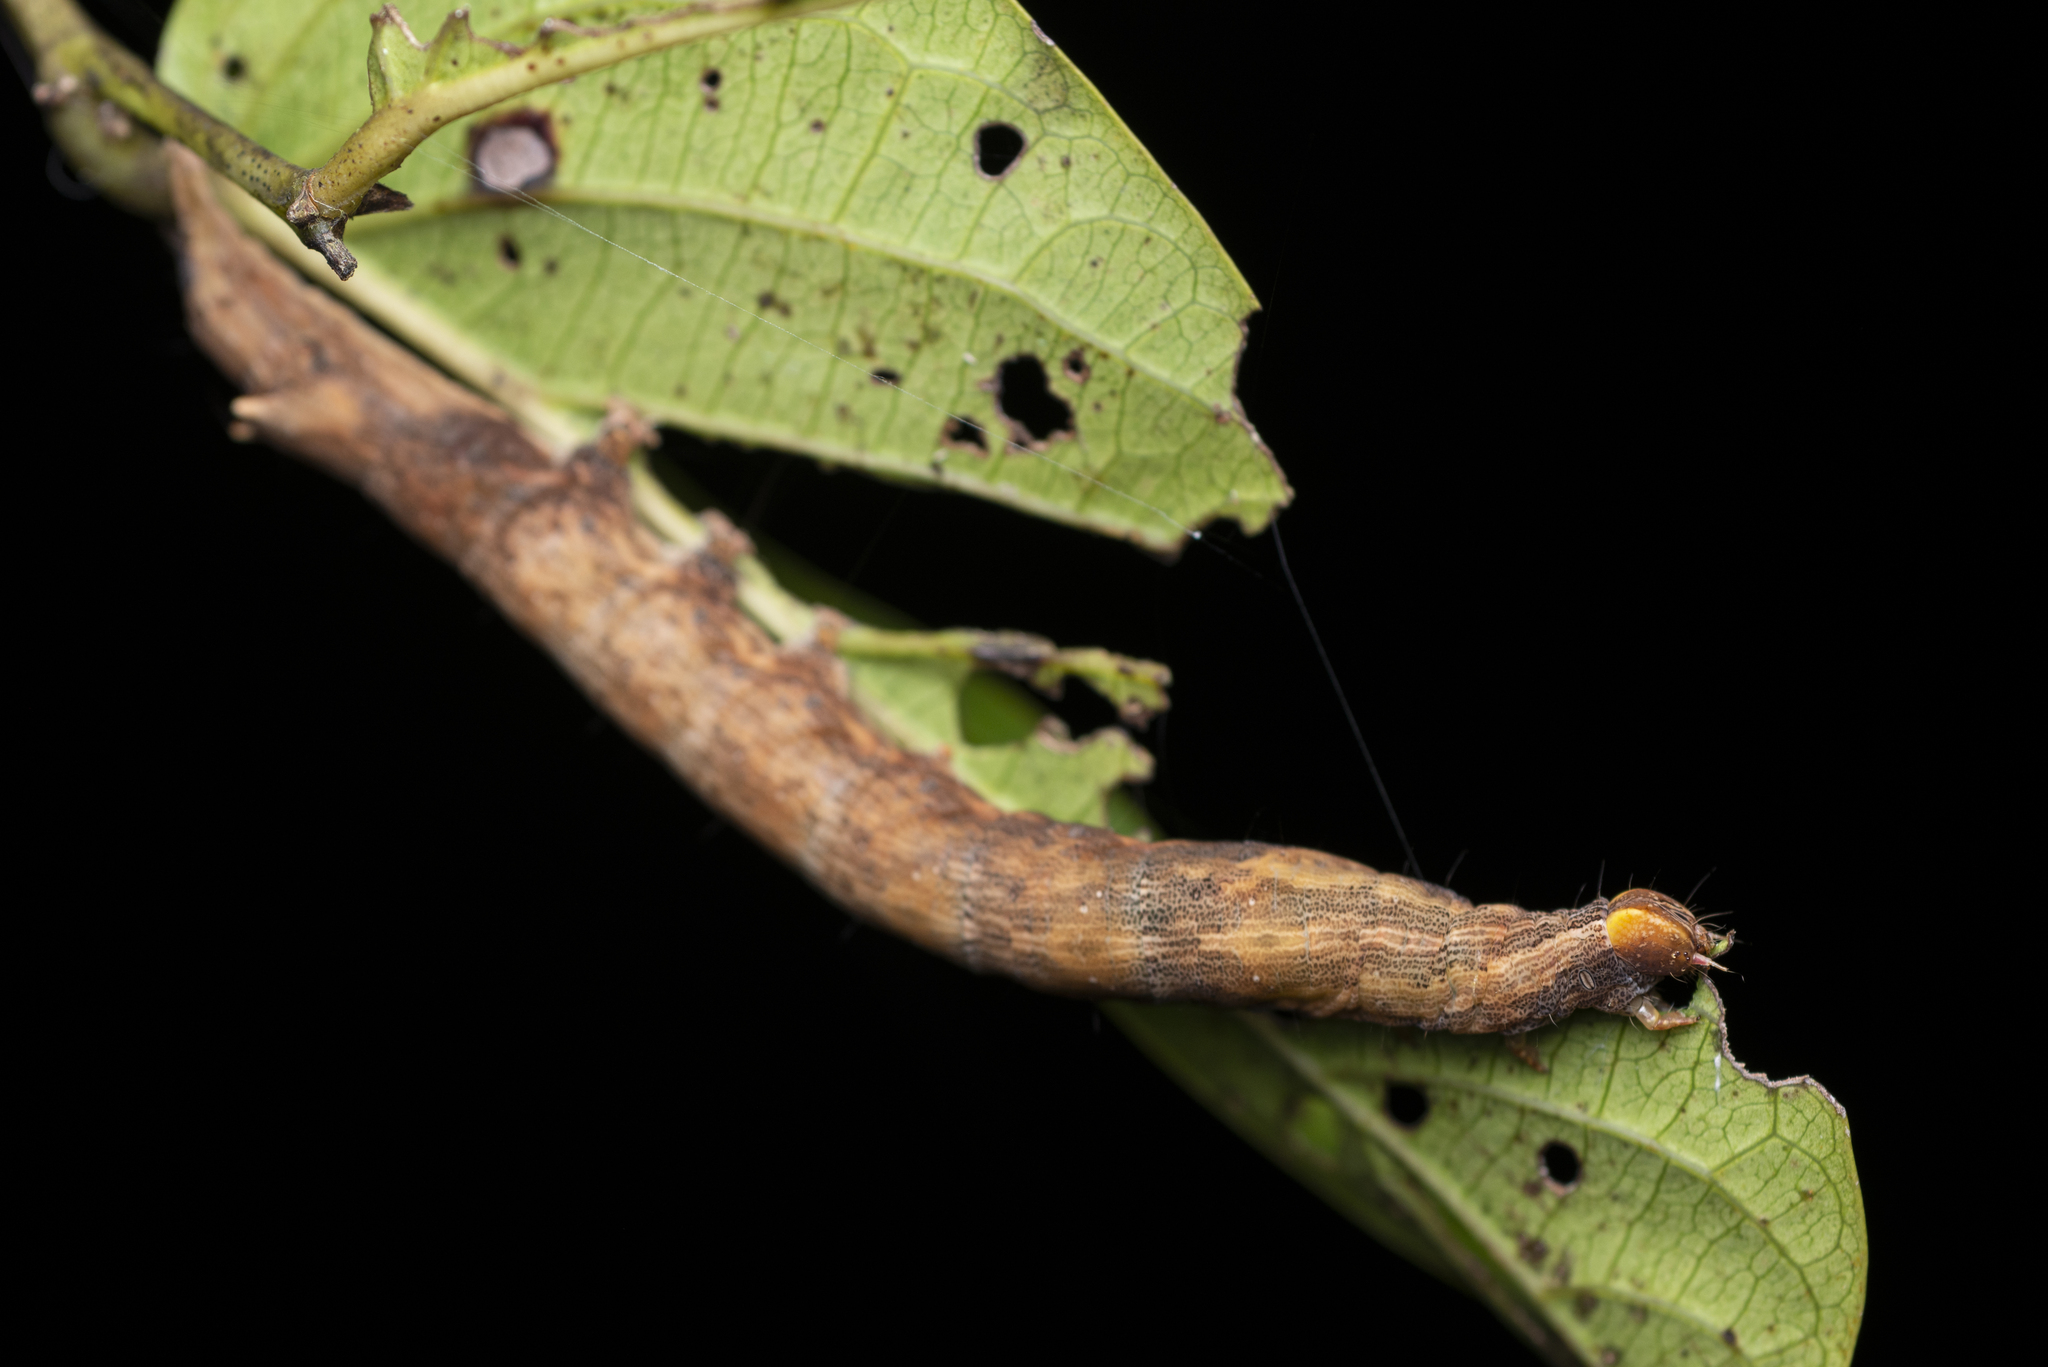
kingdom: Animalia
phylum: Arthropoda
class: Insecta
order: Lepidoptera
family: Erebidae
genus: Dysgonia
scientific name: Dysgonia stuposa
